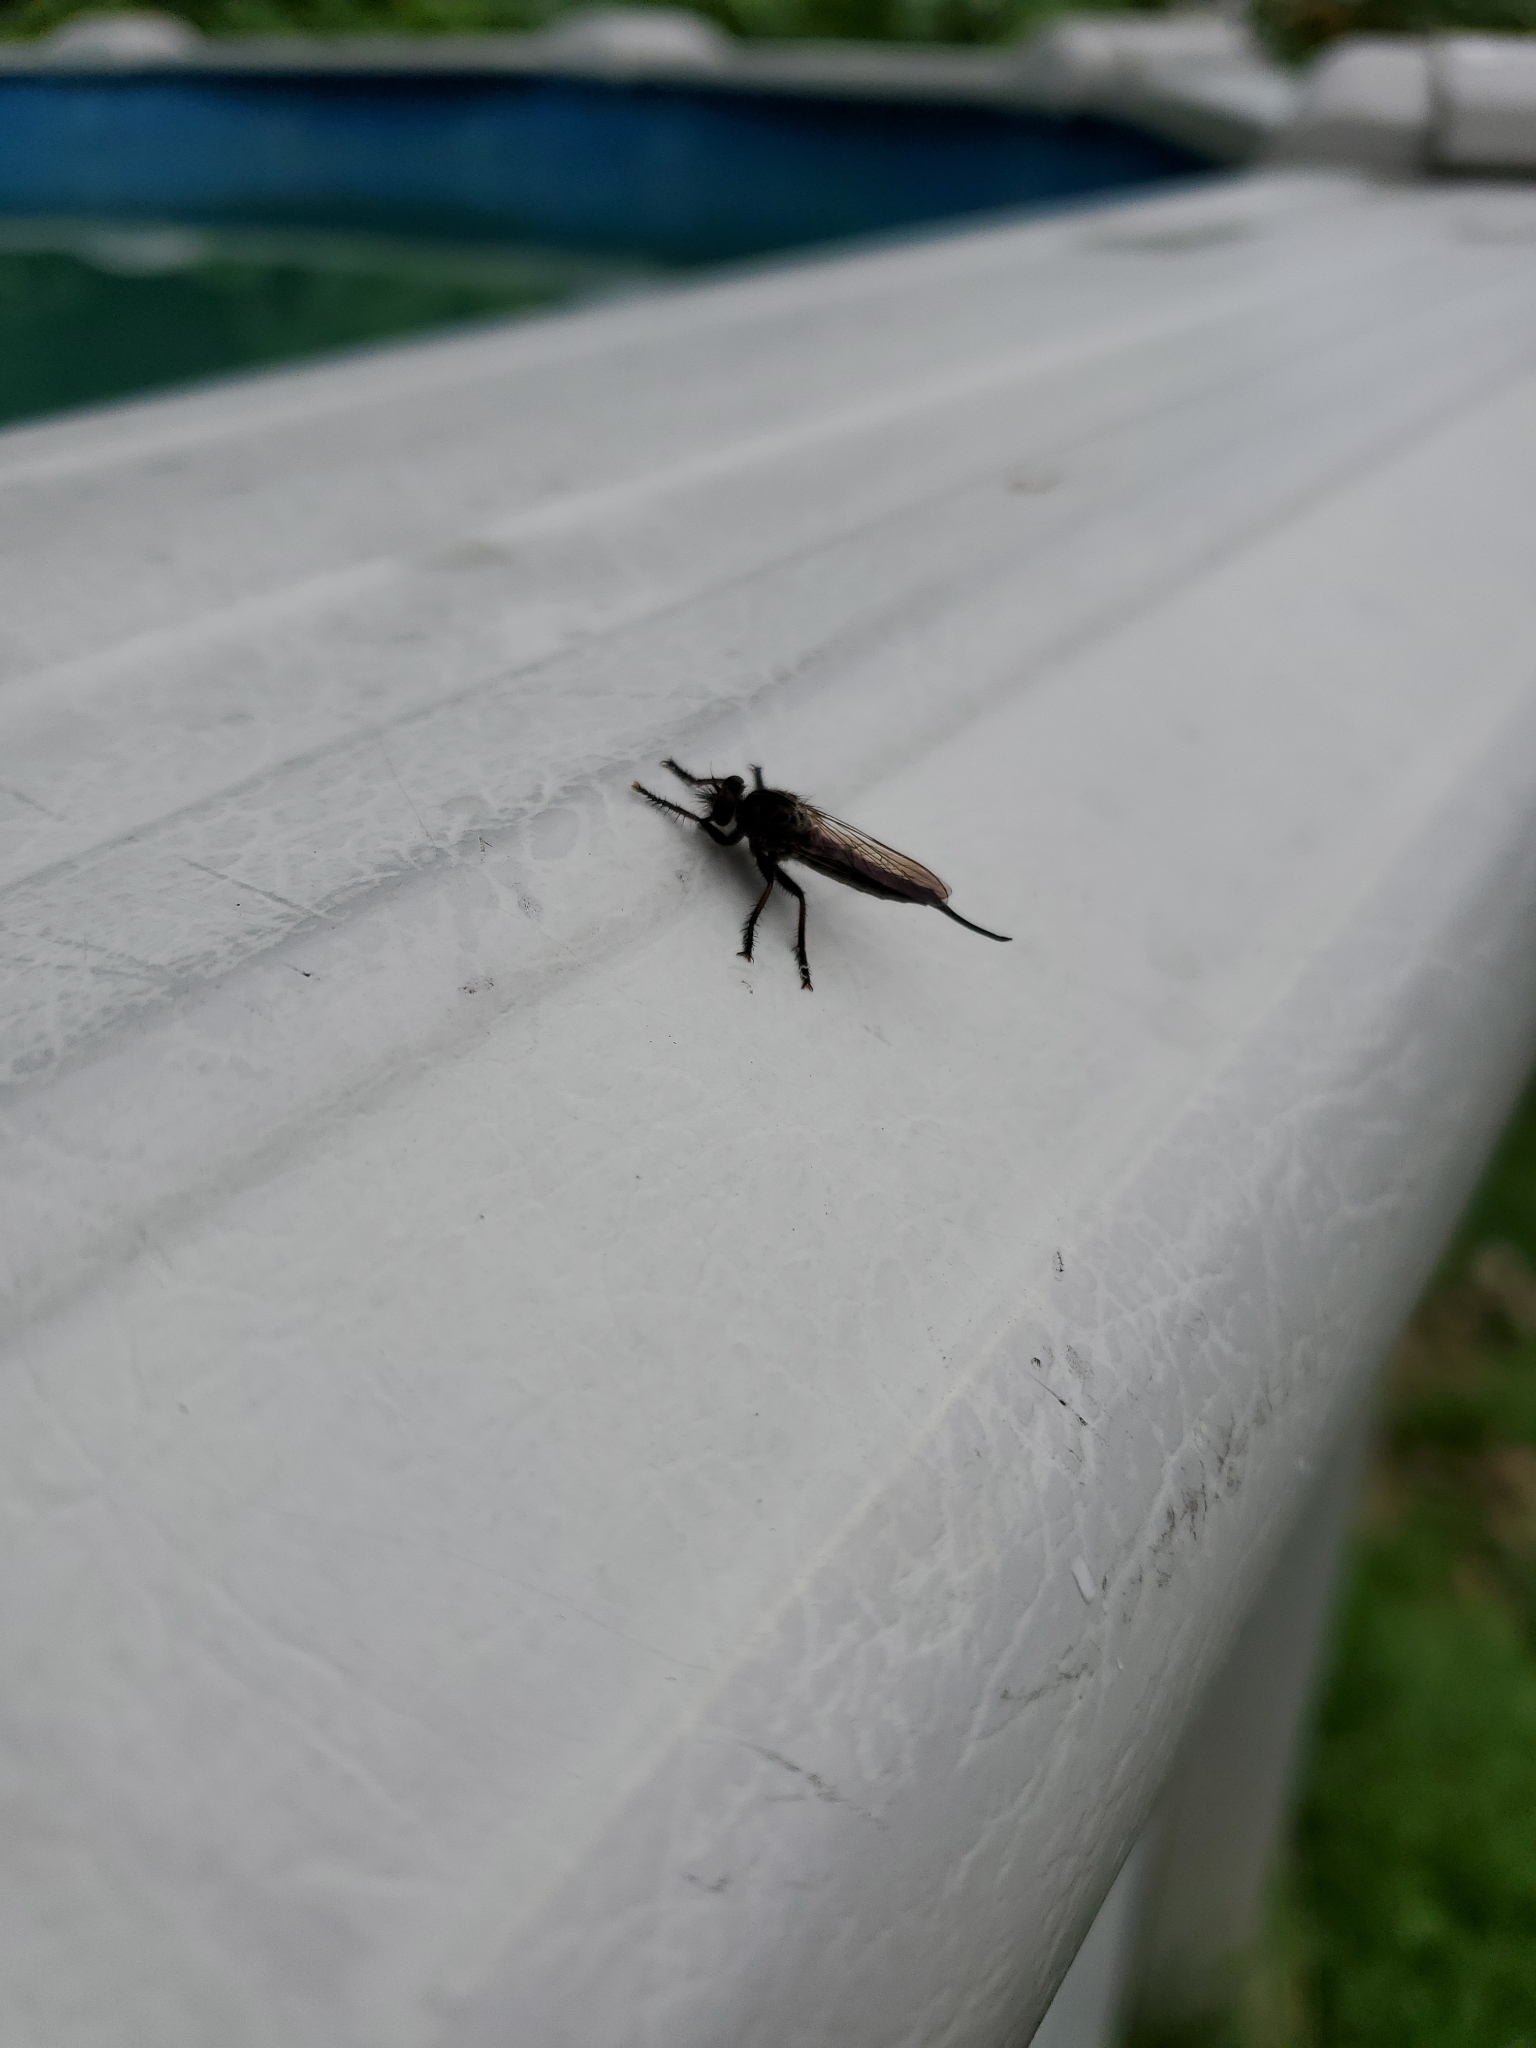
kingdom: Animalia
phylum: Arthropoda
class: Insecta
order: Diptera
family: Asilidae
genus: Efferia
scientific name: Efferia aestuans
